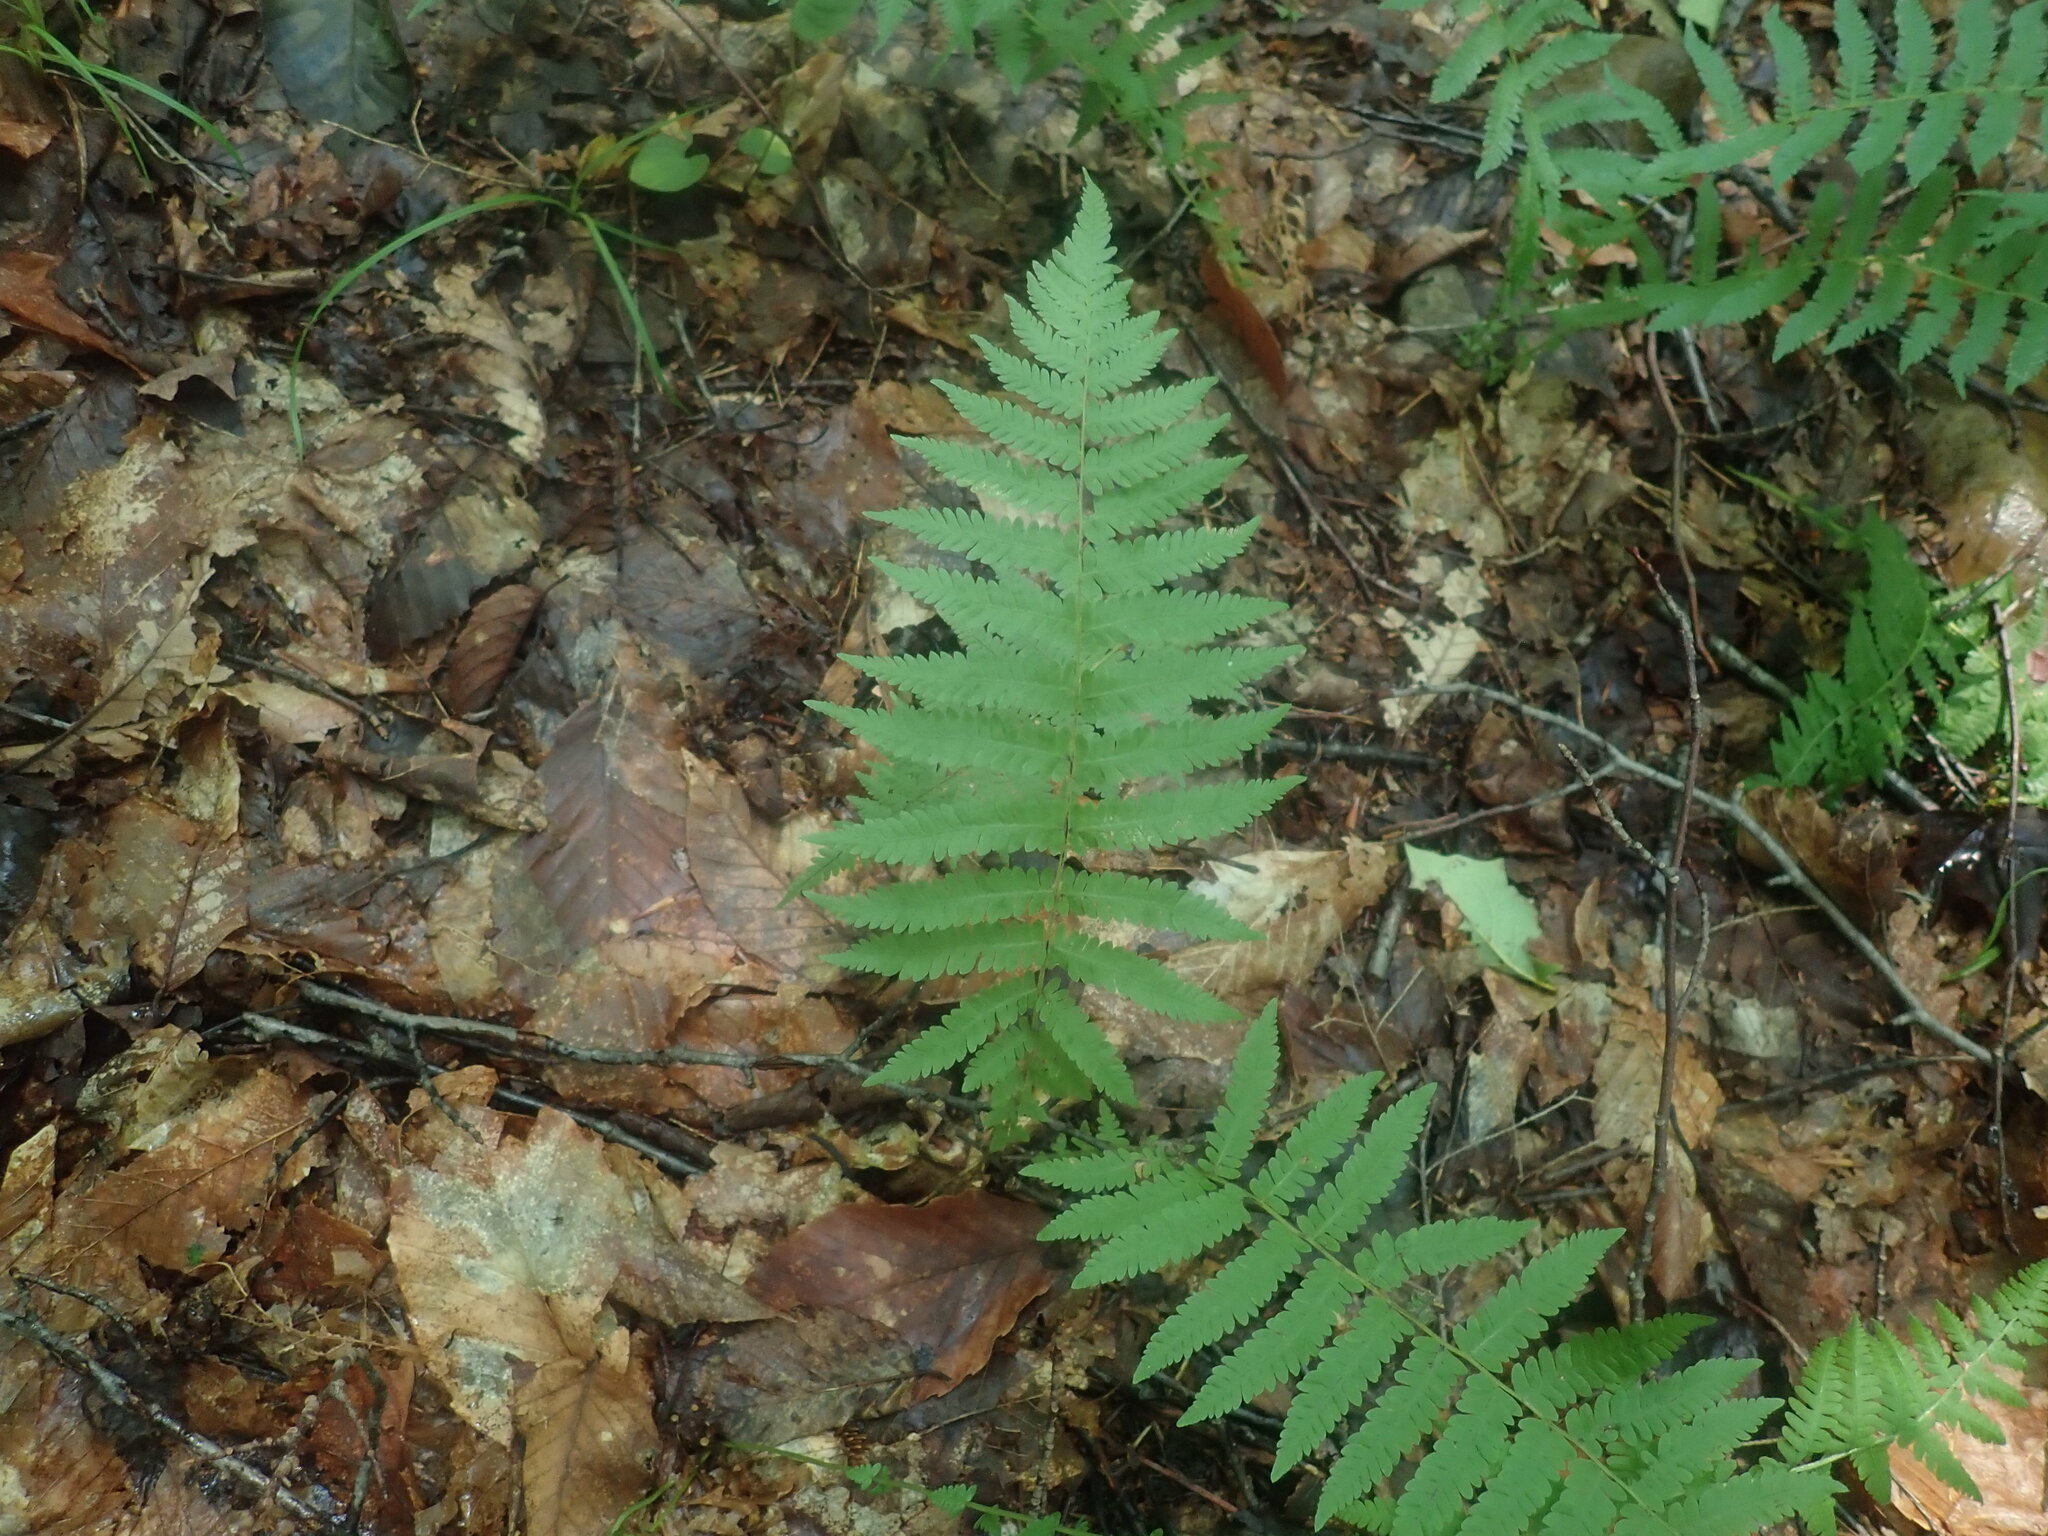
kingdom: Plantae
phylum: Tracheophyta
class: Polypodiopsida
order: Polypodiales
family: Thelypteridaceae
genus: Amauropelta
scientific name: Amauropelta noveboracensis
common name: New york fern
